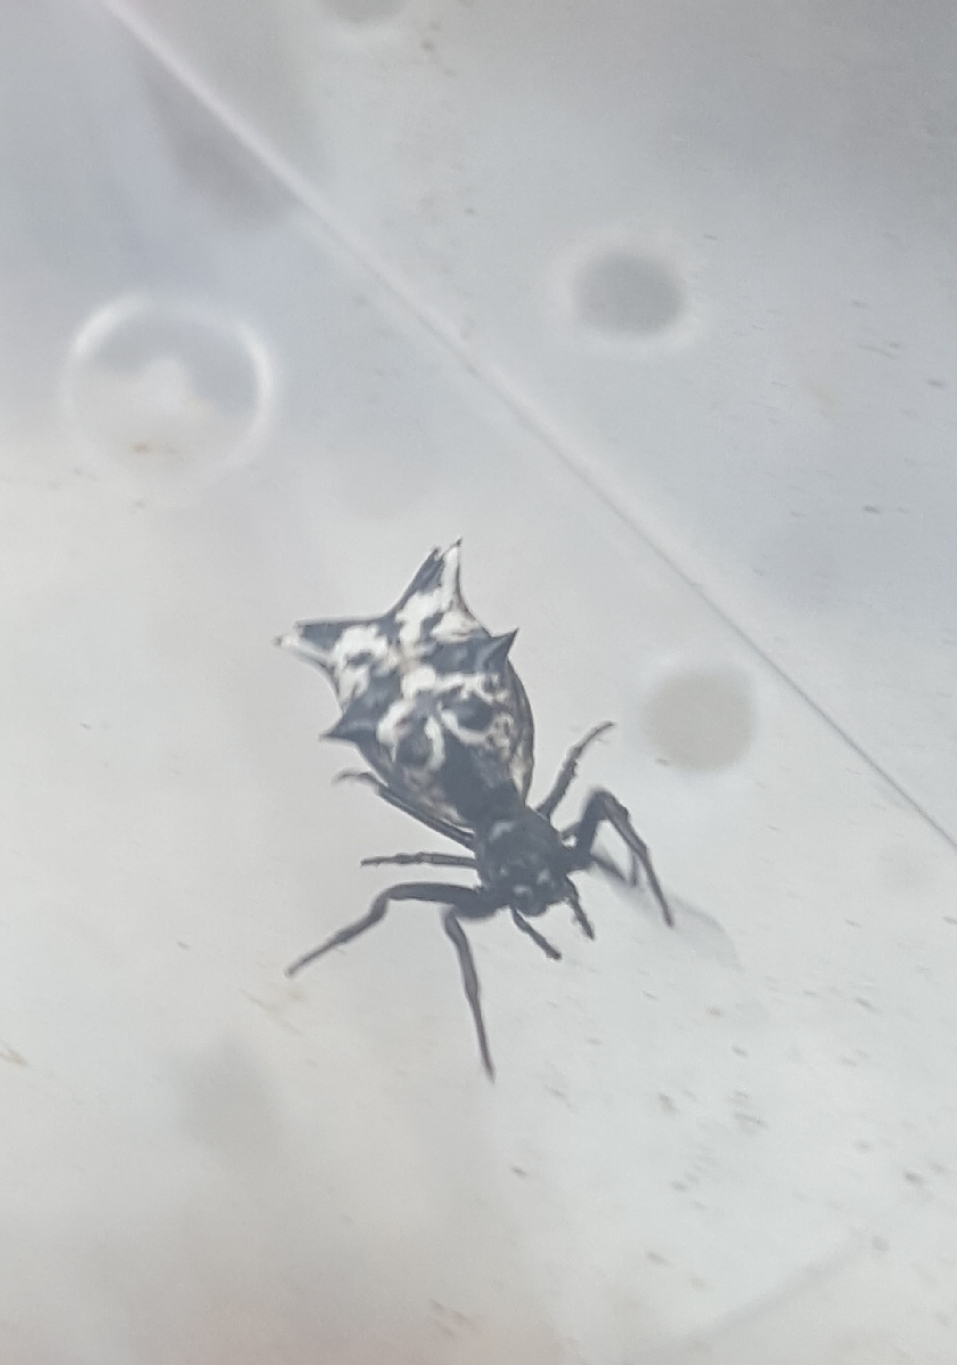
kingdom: Animalia
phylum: Arthropoda
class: Arachnida
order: Araneae
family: Araneidae
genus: Micrathena
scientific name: Micrathena gracilis
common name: Orb weavers
